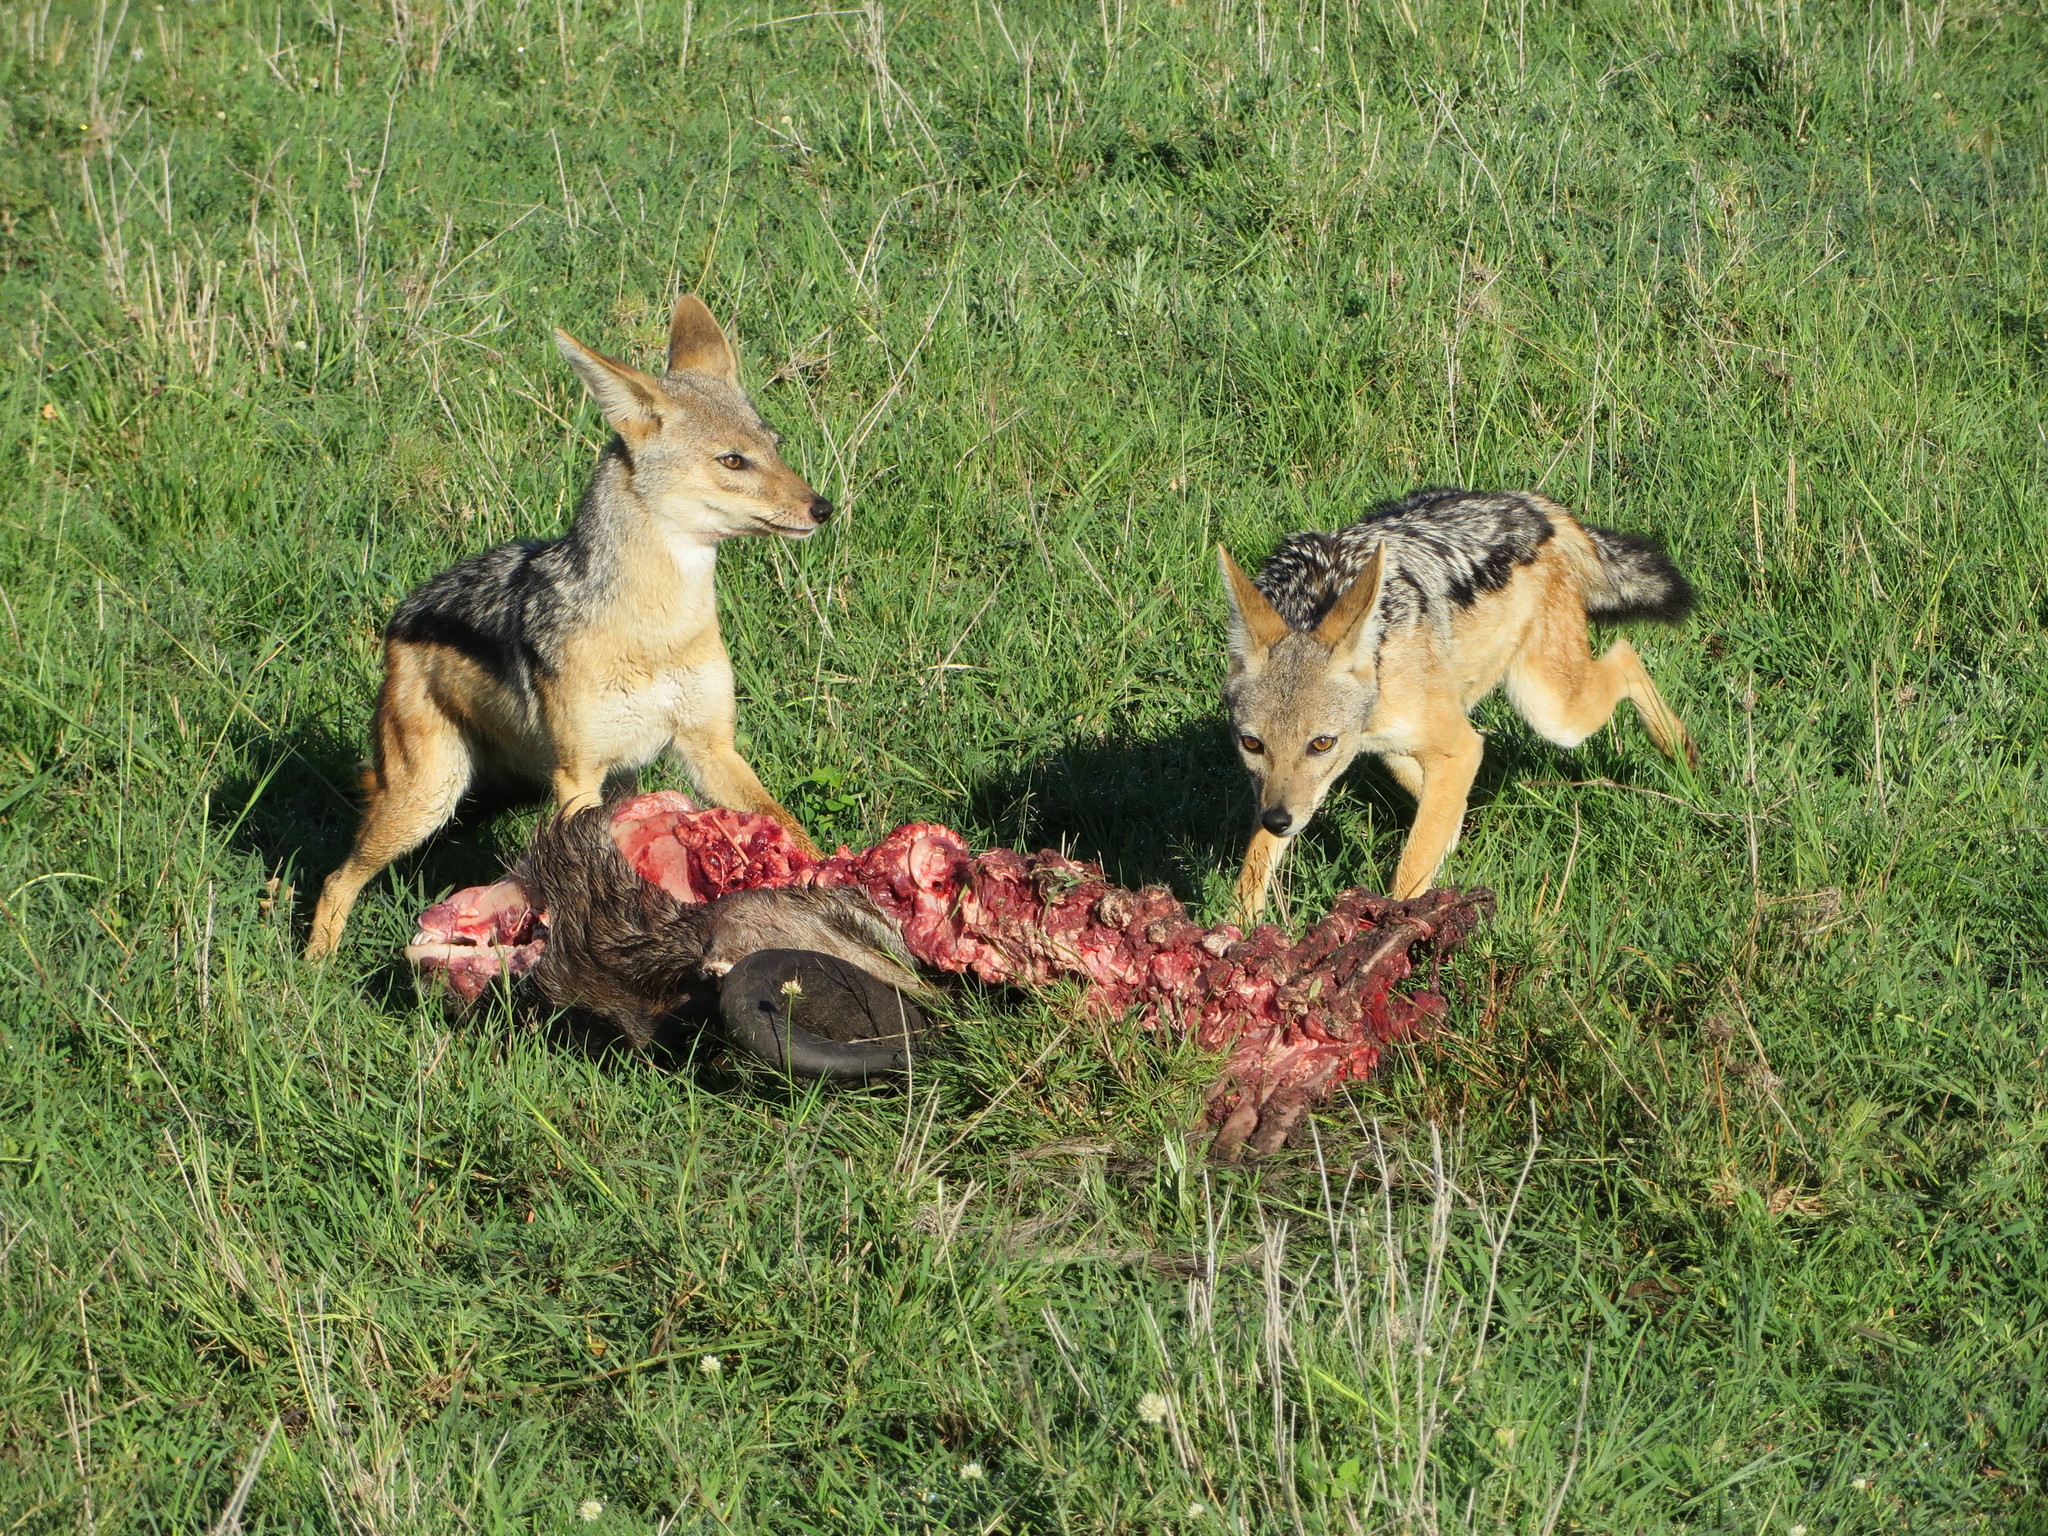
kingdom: Animalia
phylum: Chordata
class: Mammalia
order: Carnivora
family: Canidae
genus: Lupulella
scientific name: Lupulella
